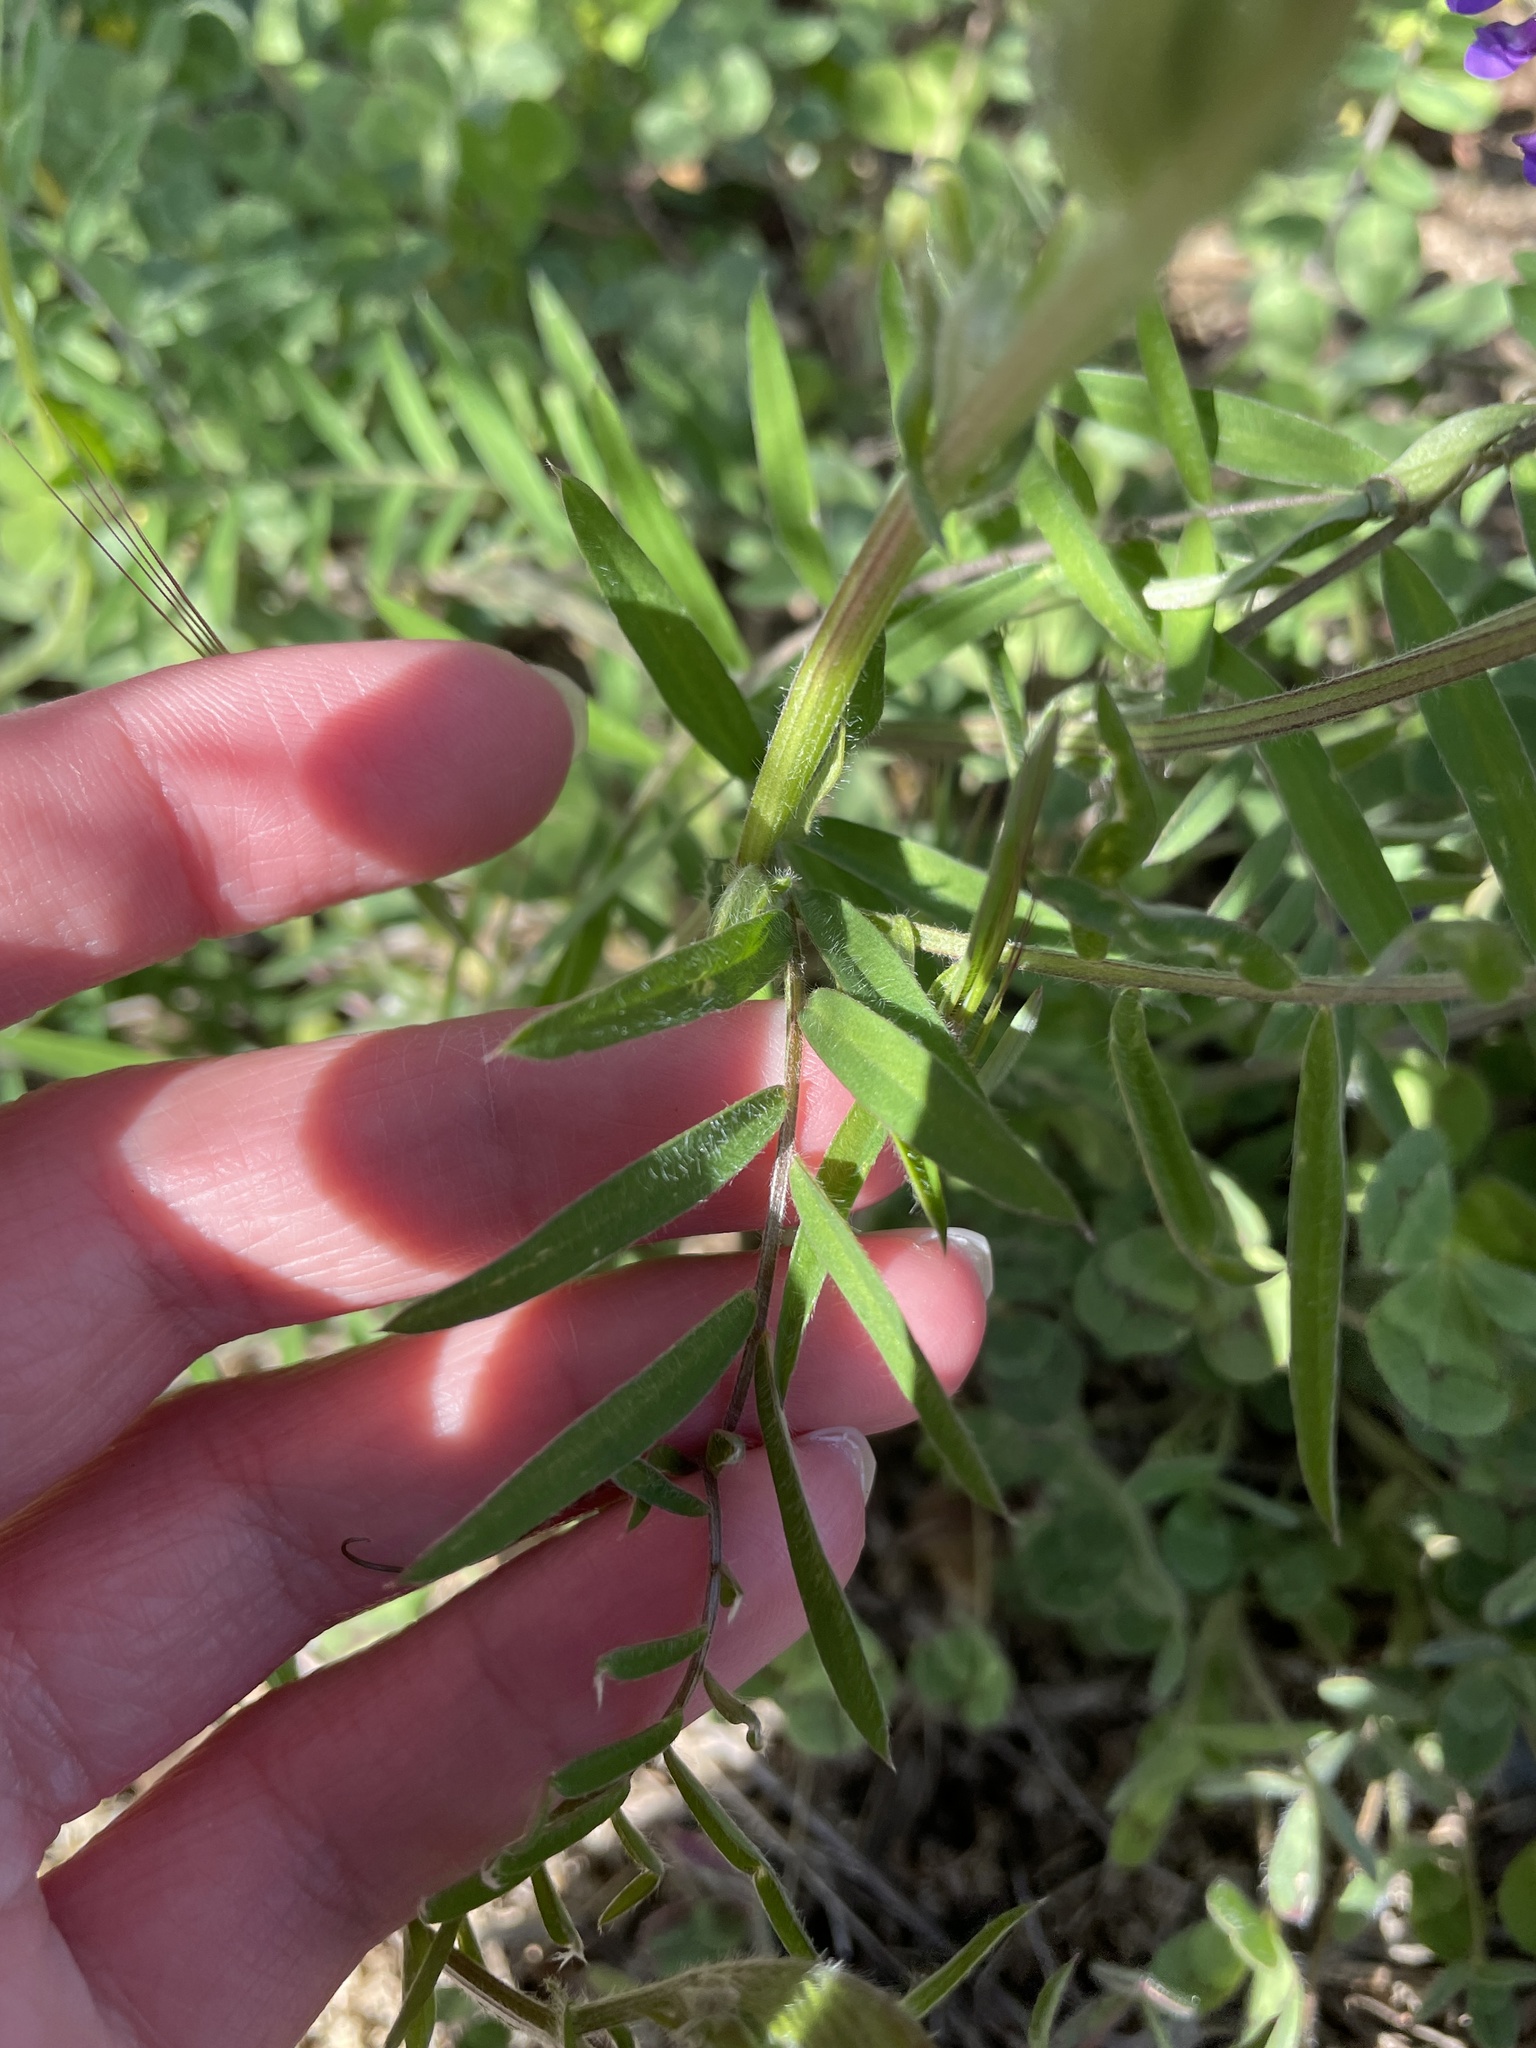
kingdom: Plantae
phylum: Tracheophyta
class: Magnoliopsida
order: Fabales
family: Fabaceae
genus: Vicia
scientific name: Vicia villosa
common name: Fodder vetch
